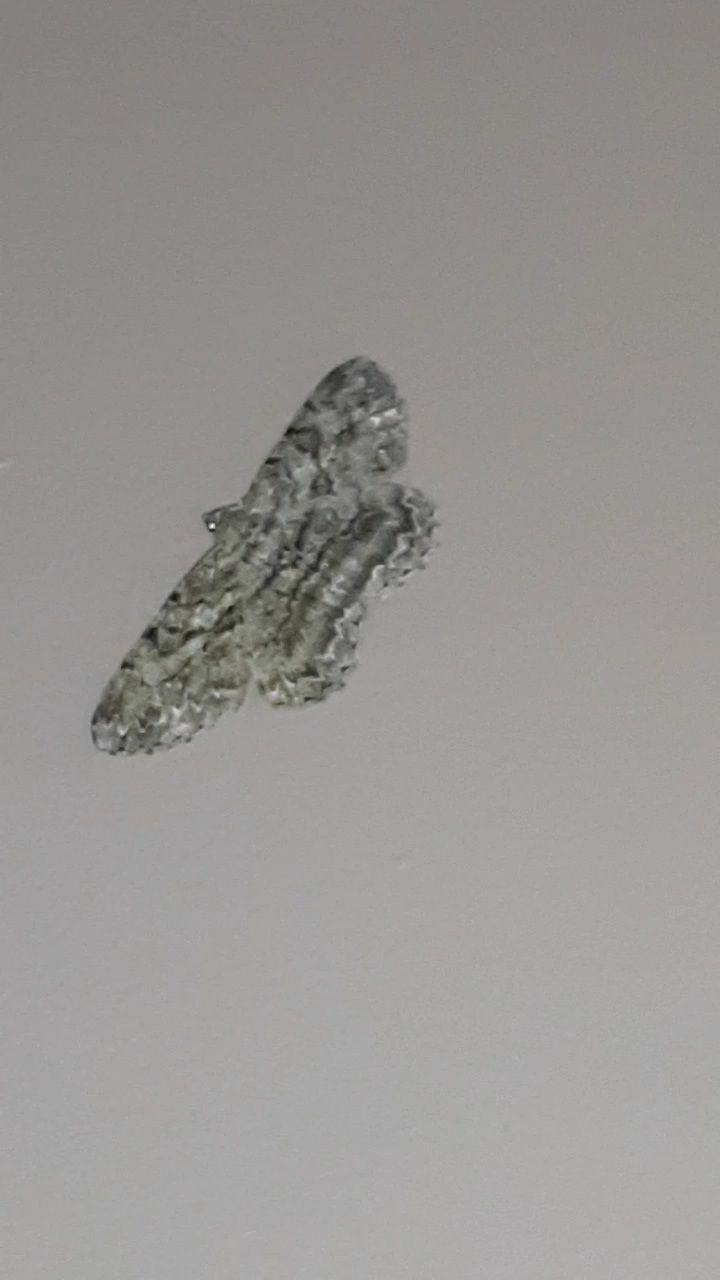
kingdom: Animalia
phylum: Arthropoda
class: Insecta
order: Lepidoptera
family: Geometridae
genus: Peribatodes
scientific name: Peribatodes rhomboidaria
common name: Willow beauty
